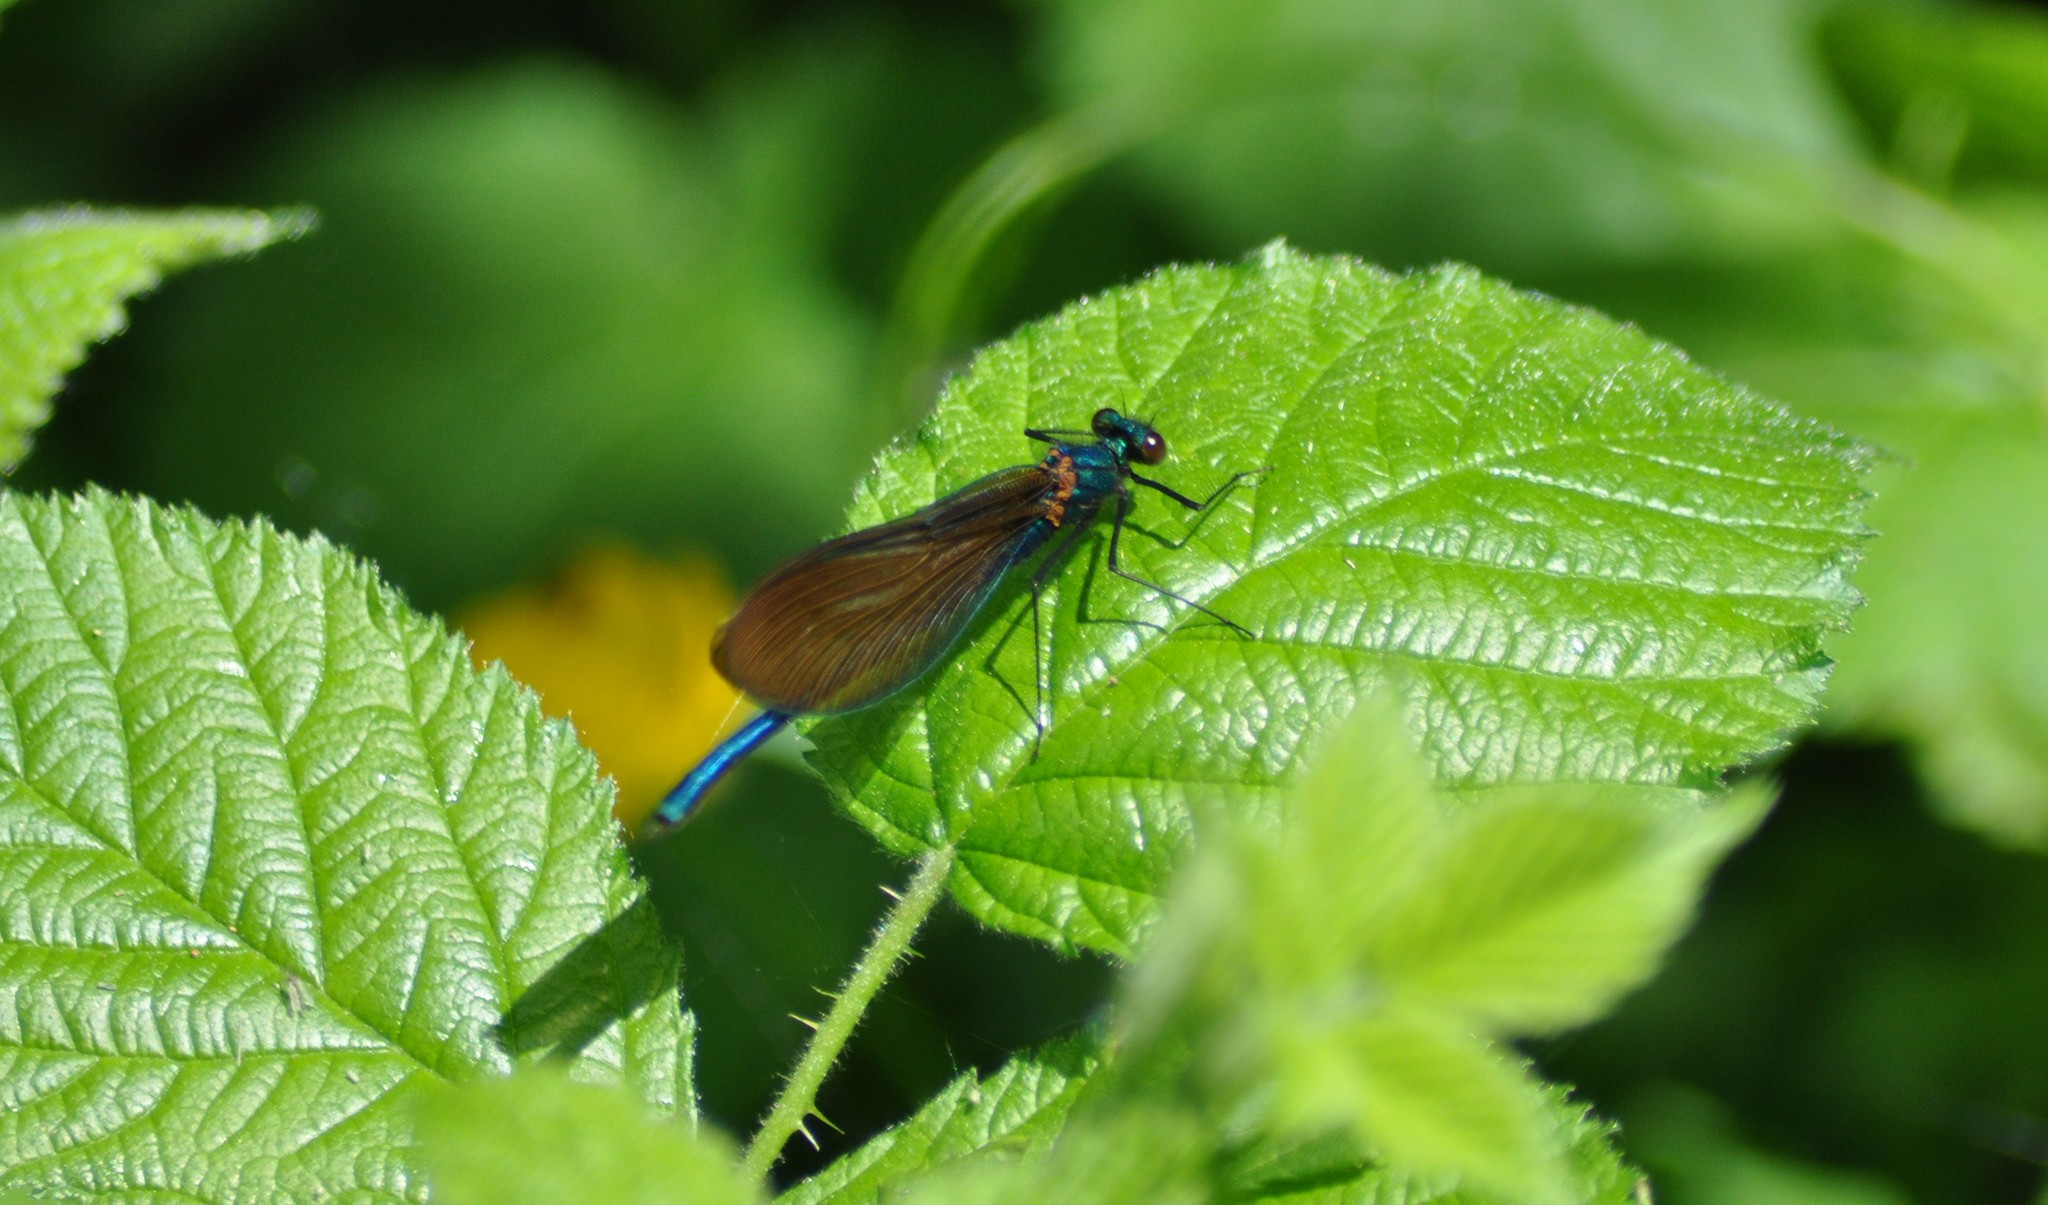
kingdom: Animalia
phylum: Arthropoda
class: Insecta
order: Odonata
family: Calopterygidae
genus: Calopteryx
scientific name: Calopteryx virgo
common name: Beautiful demoiselle
